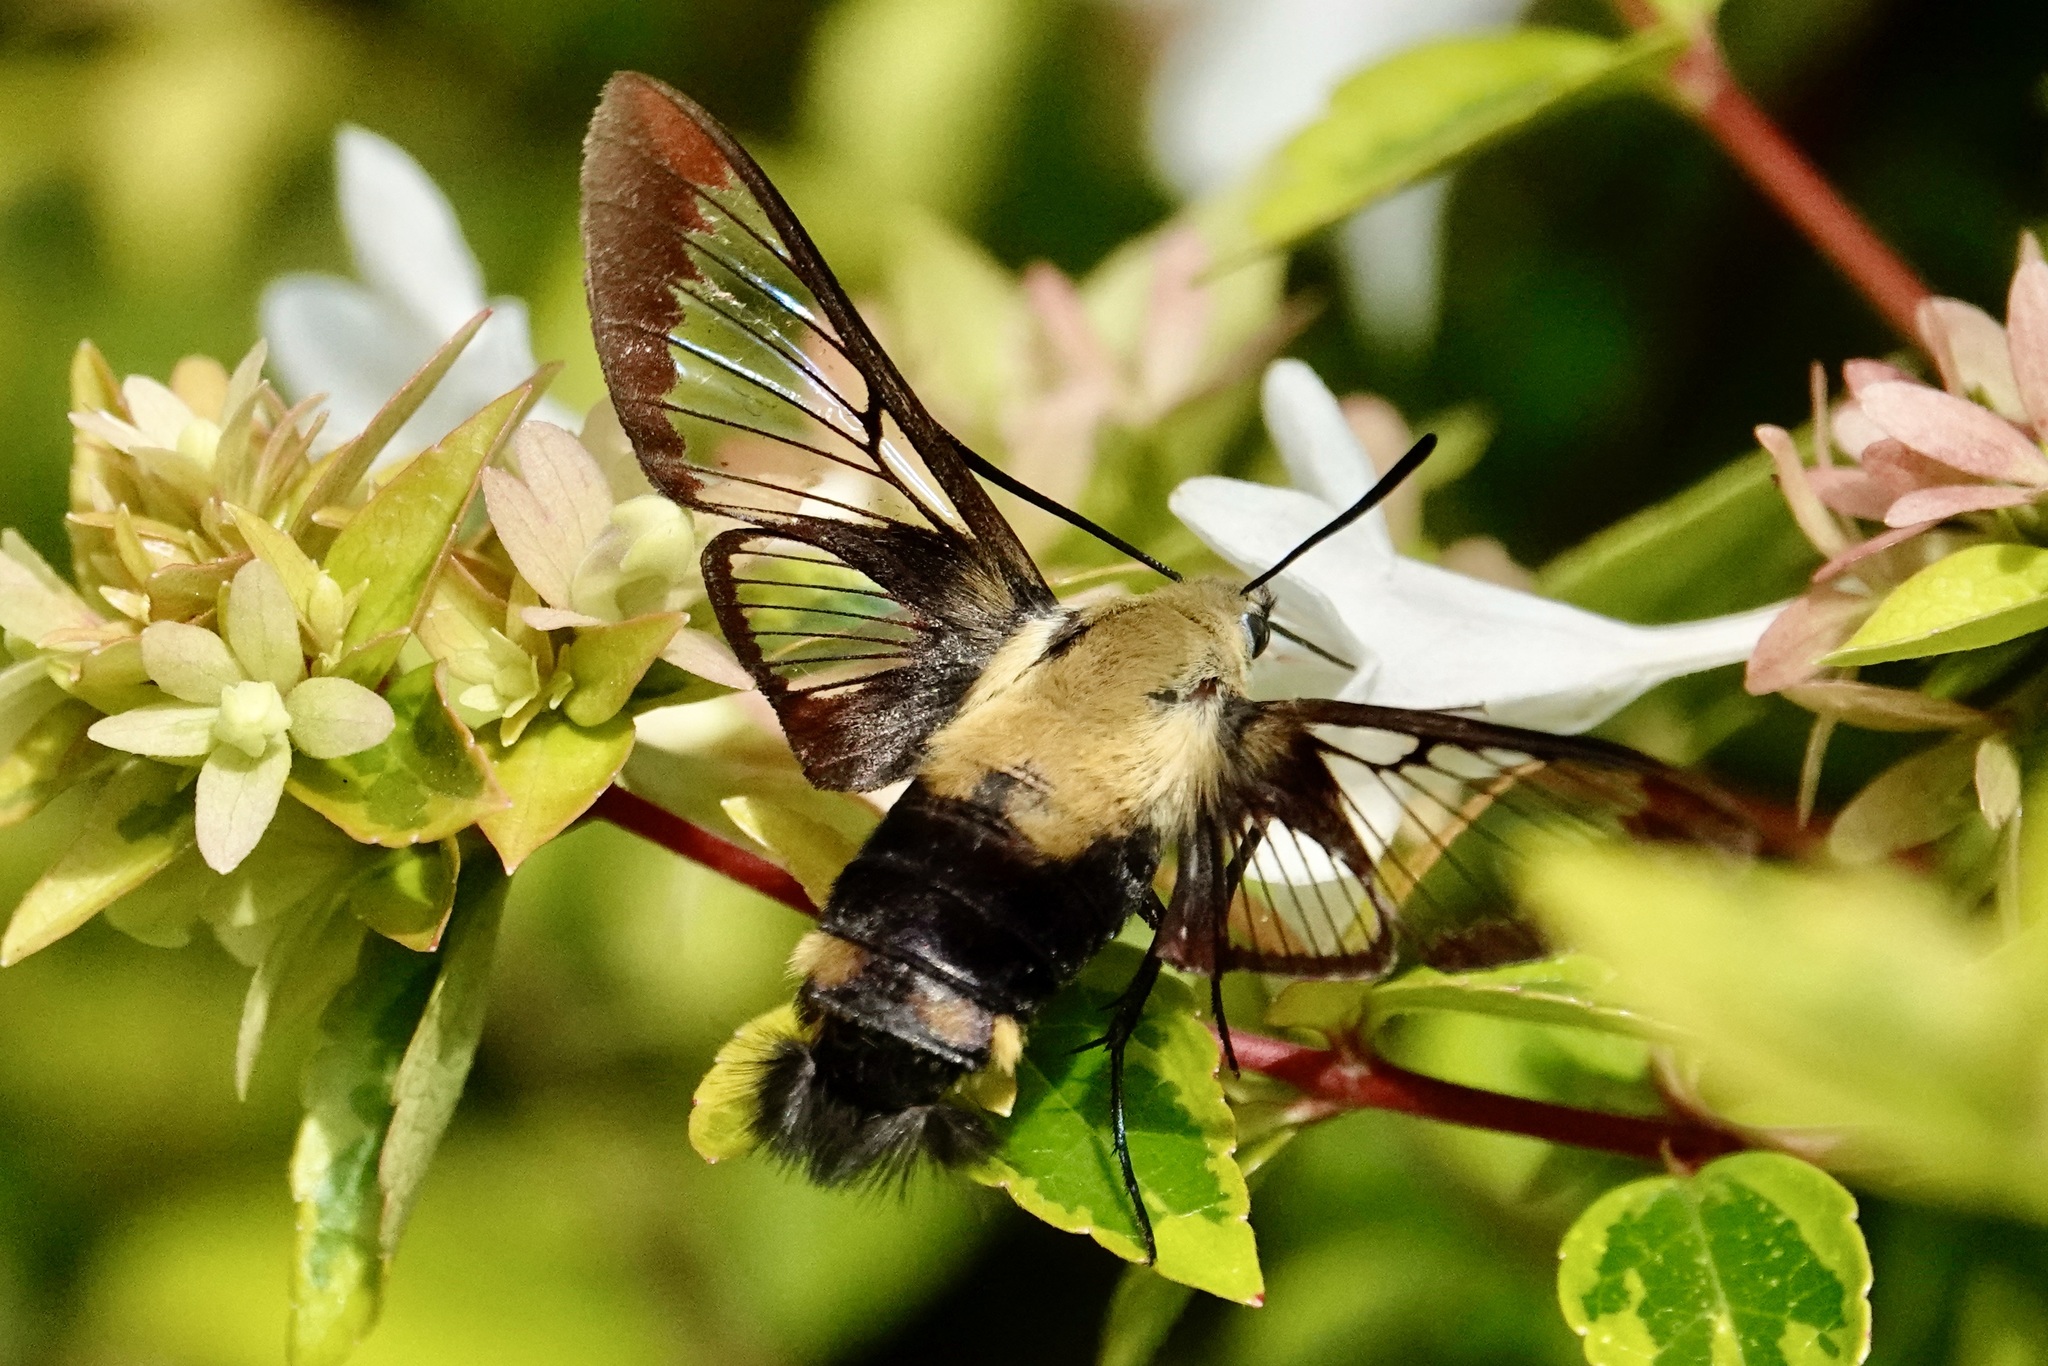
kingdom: Animalia
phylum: Arthropoda
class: Insecta
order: Lepidoptera
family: Sphingidae
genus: Hemaris
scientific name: Hemaris diffinis
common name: Bumblebee moth
